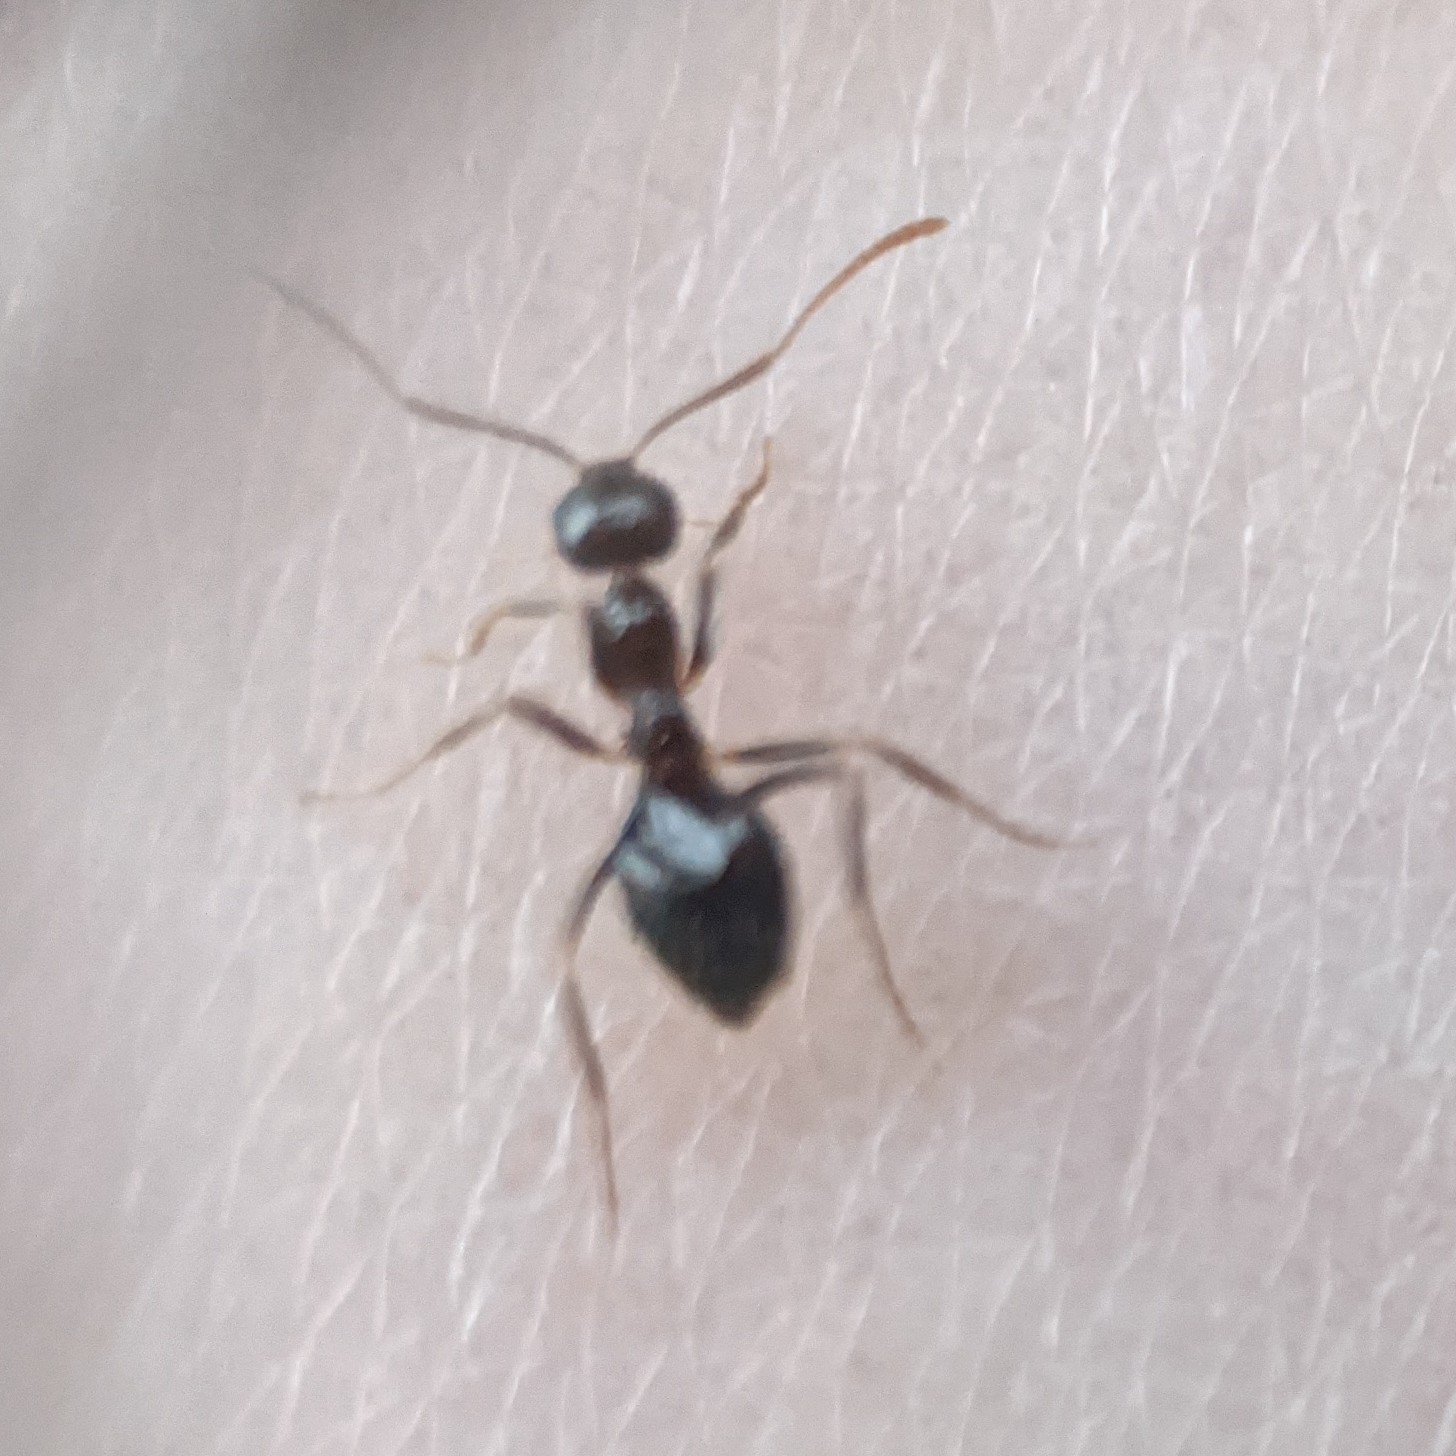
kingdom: Animalia
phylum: Arthropoda
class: Insecta
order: Hymenoptera
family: Formicidae
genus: Prenolepis
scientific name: Prenolepis imparis
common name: Small honey ant
